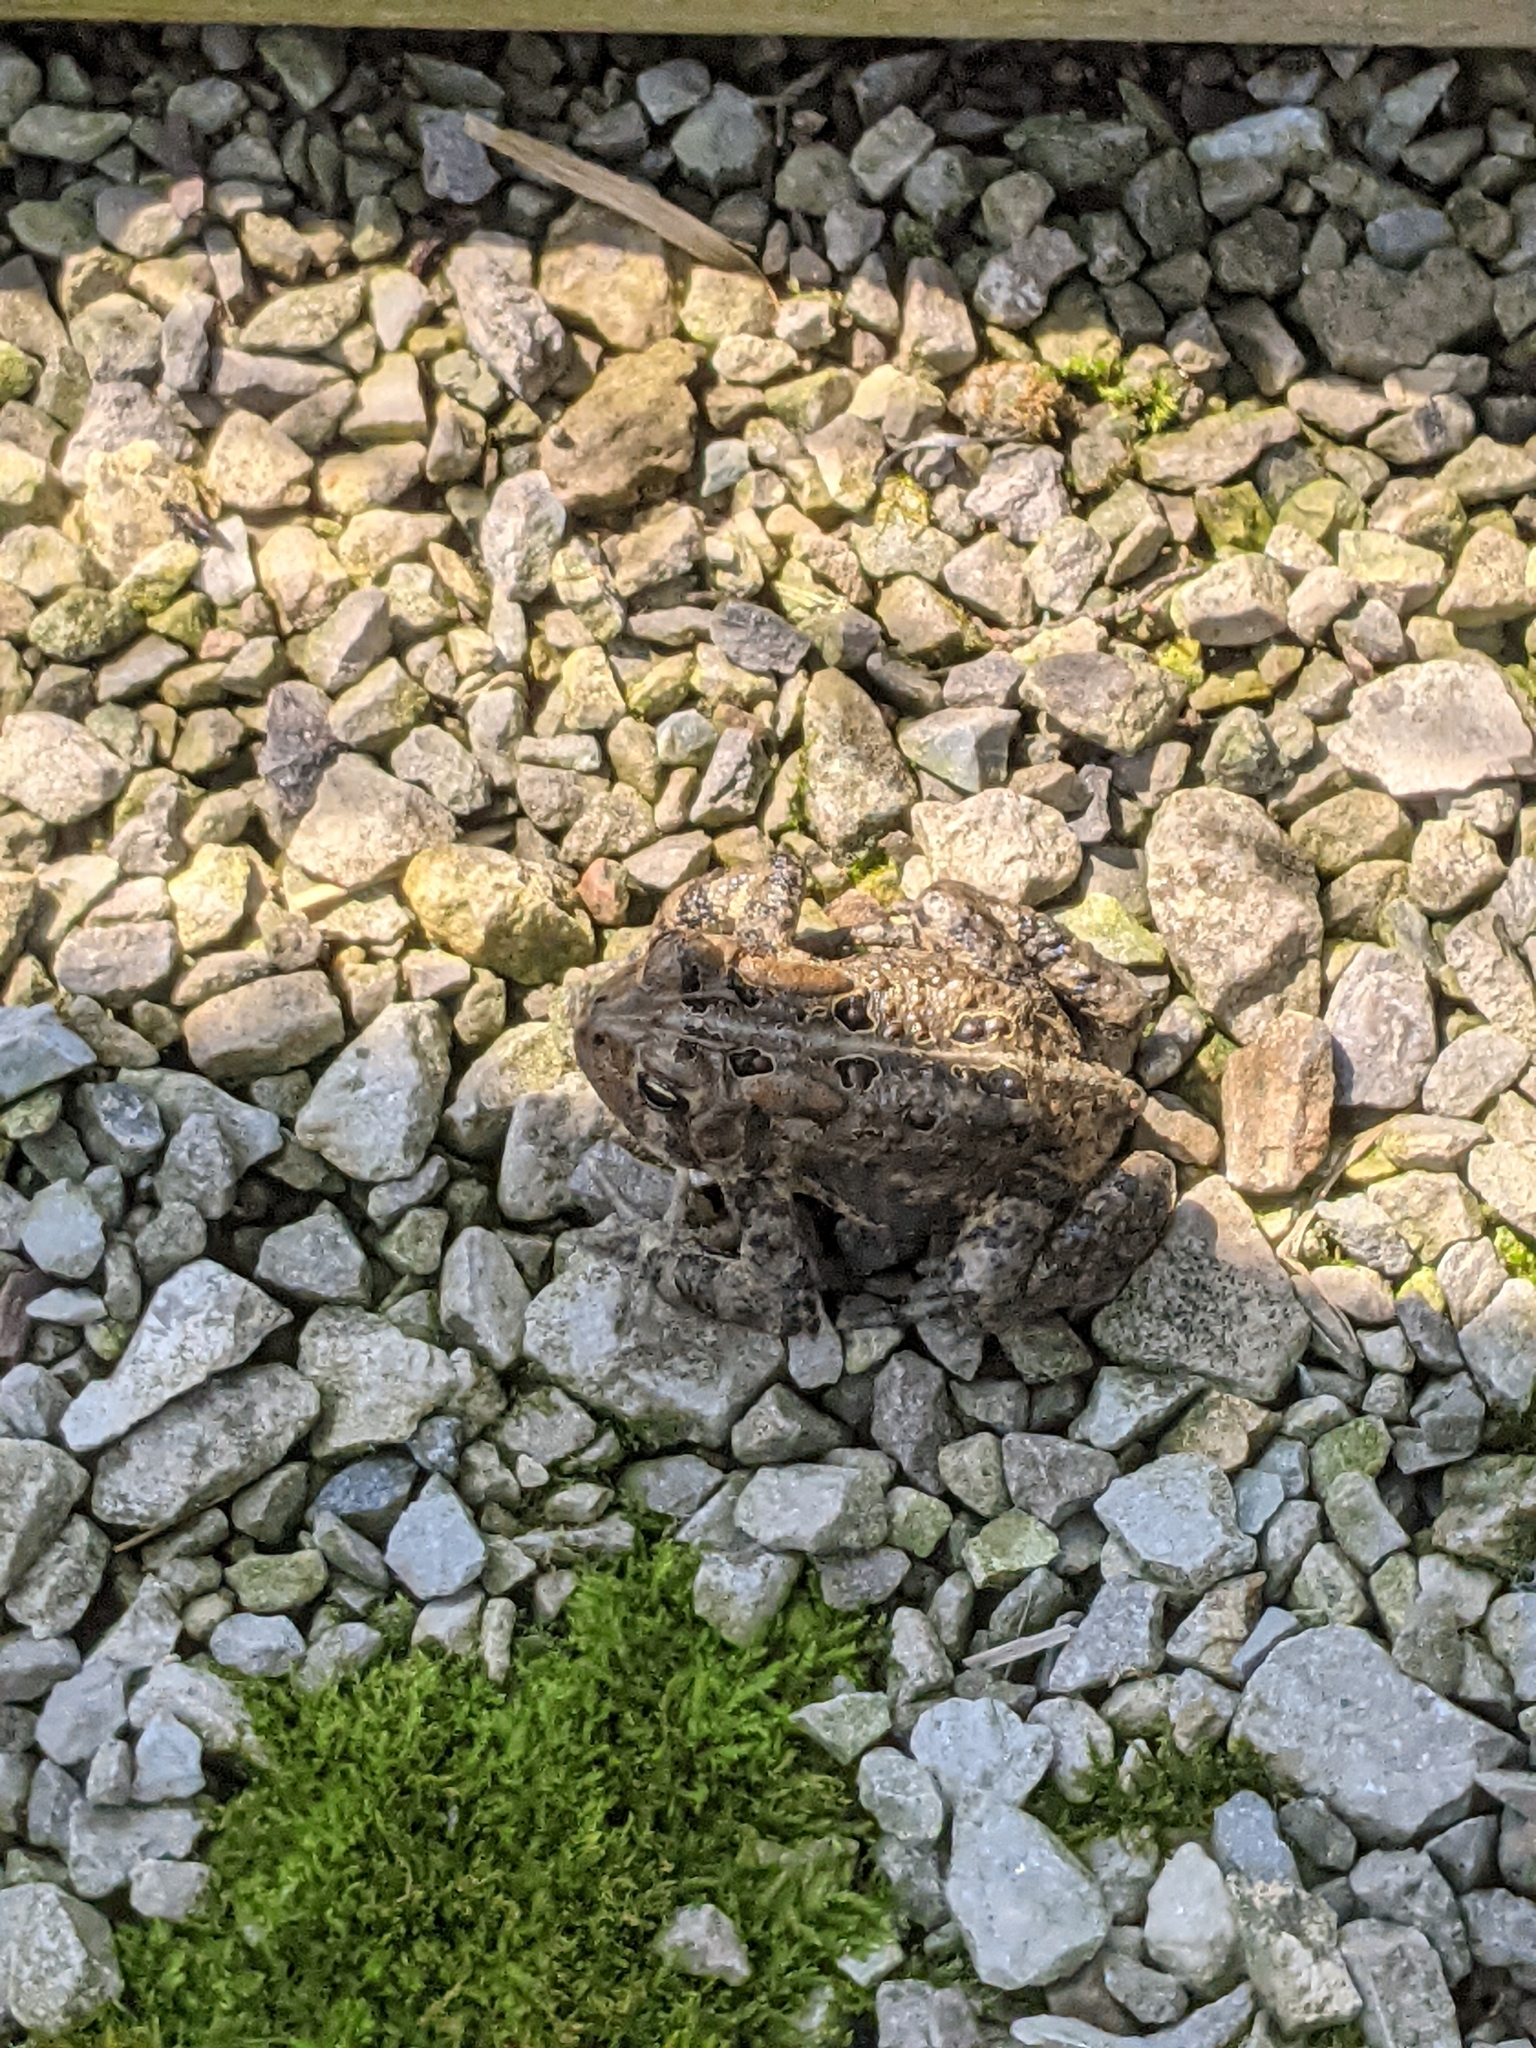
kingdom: Animalia
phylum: Chordata
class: Amphibia
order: Anura
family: Bufonidae
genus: Anaxyrus
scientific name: Anaxyrus americanus
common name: American toad
